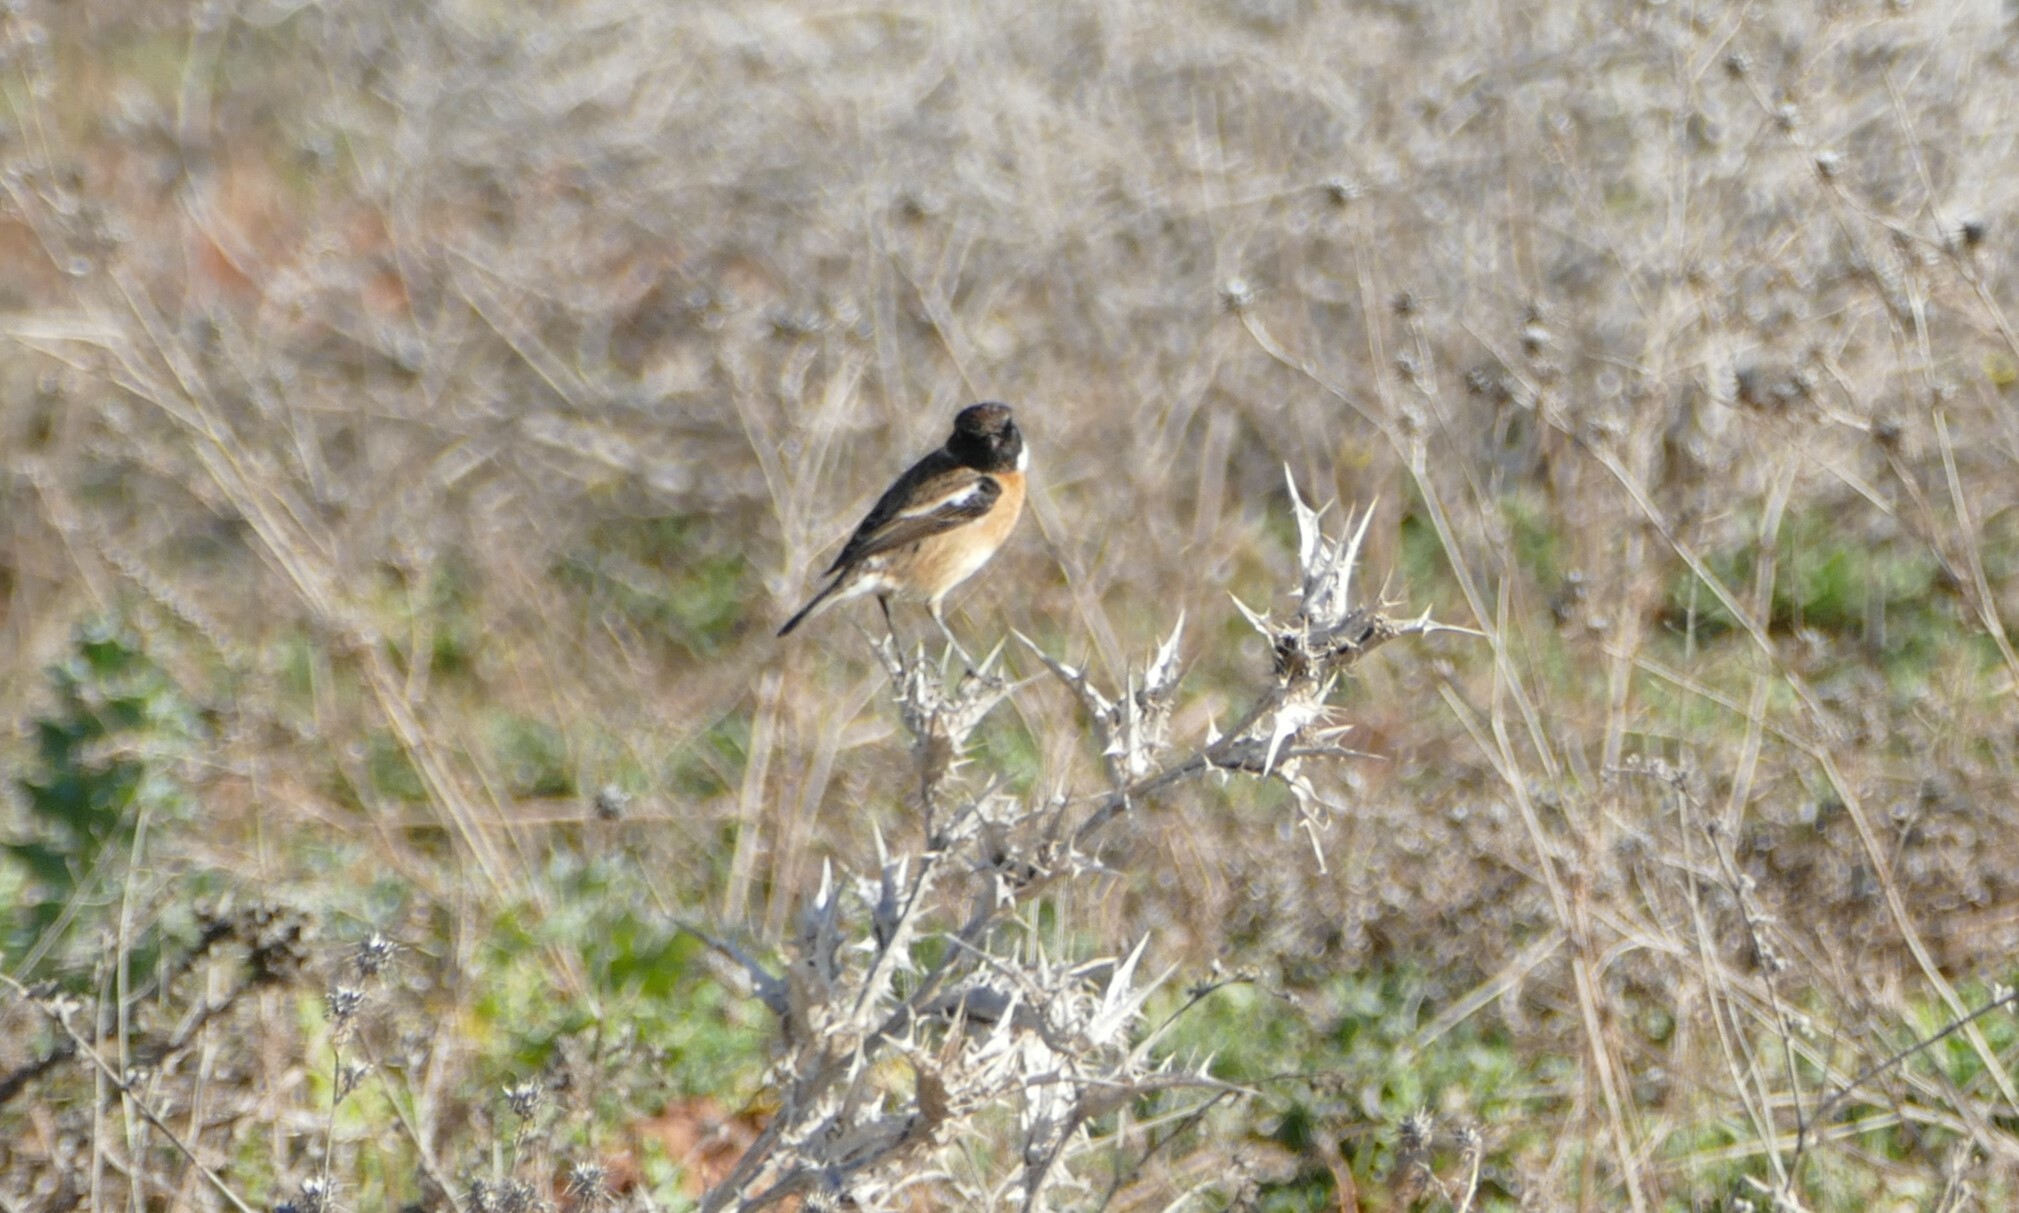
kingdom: Animalia
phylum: Chordata
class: Aves
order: Passeriformes
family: Muscicapidae
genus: Saxicola
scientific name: Saxicola rubicola
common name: European stonechat
